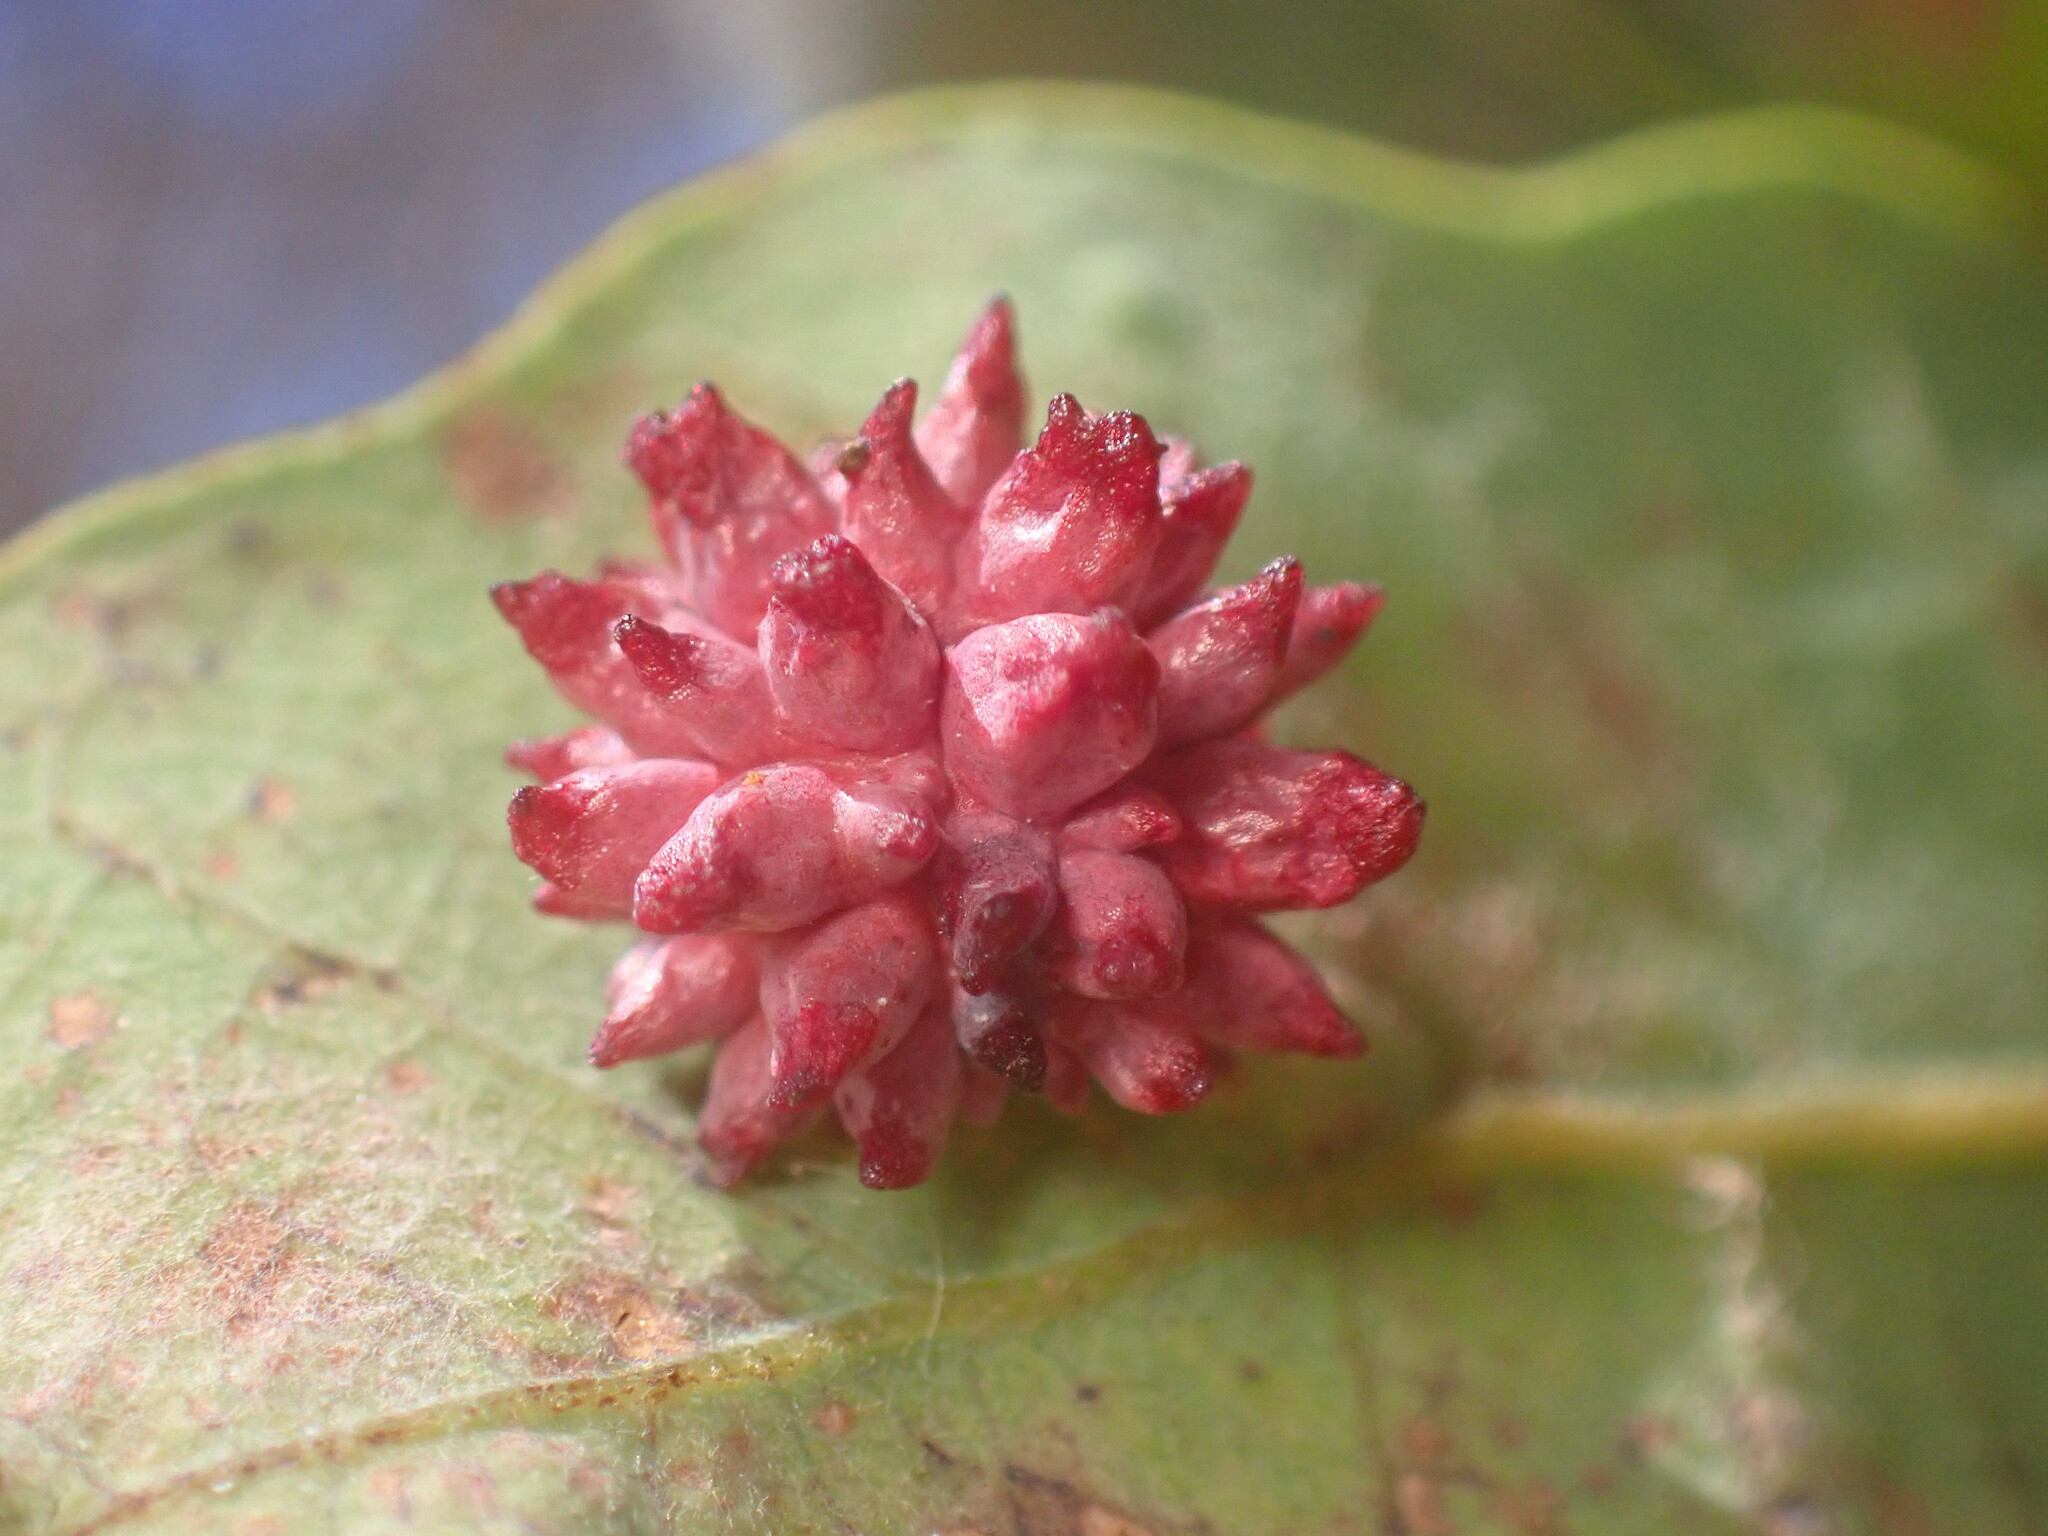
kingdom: Animalia
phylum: Arthropoda
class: Insecta
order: Hymenoptera
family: Cynipidae
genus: Cynips
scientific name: Cynips
